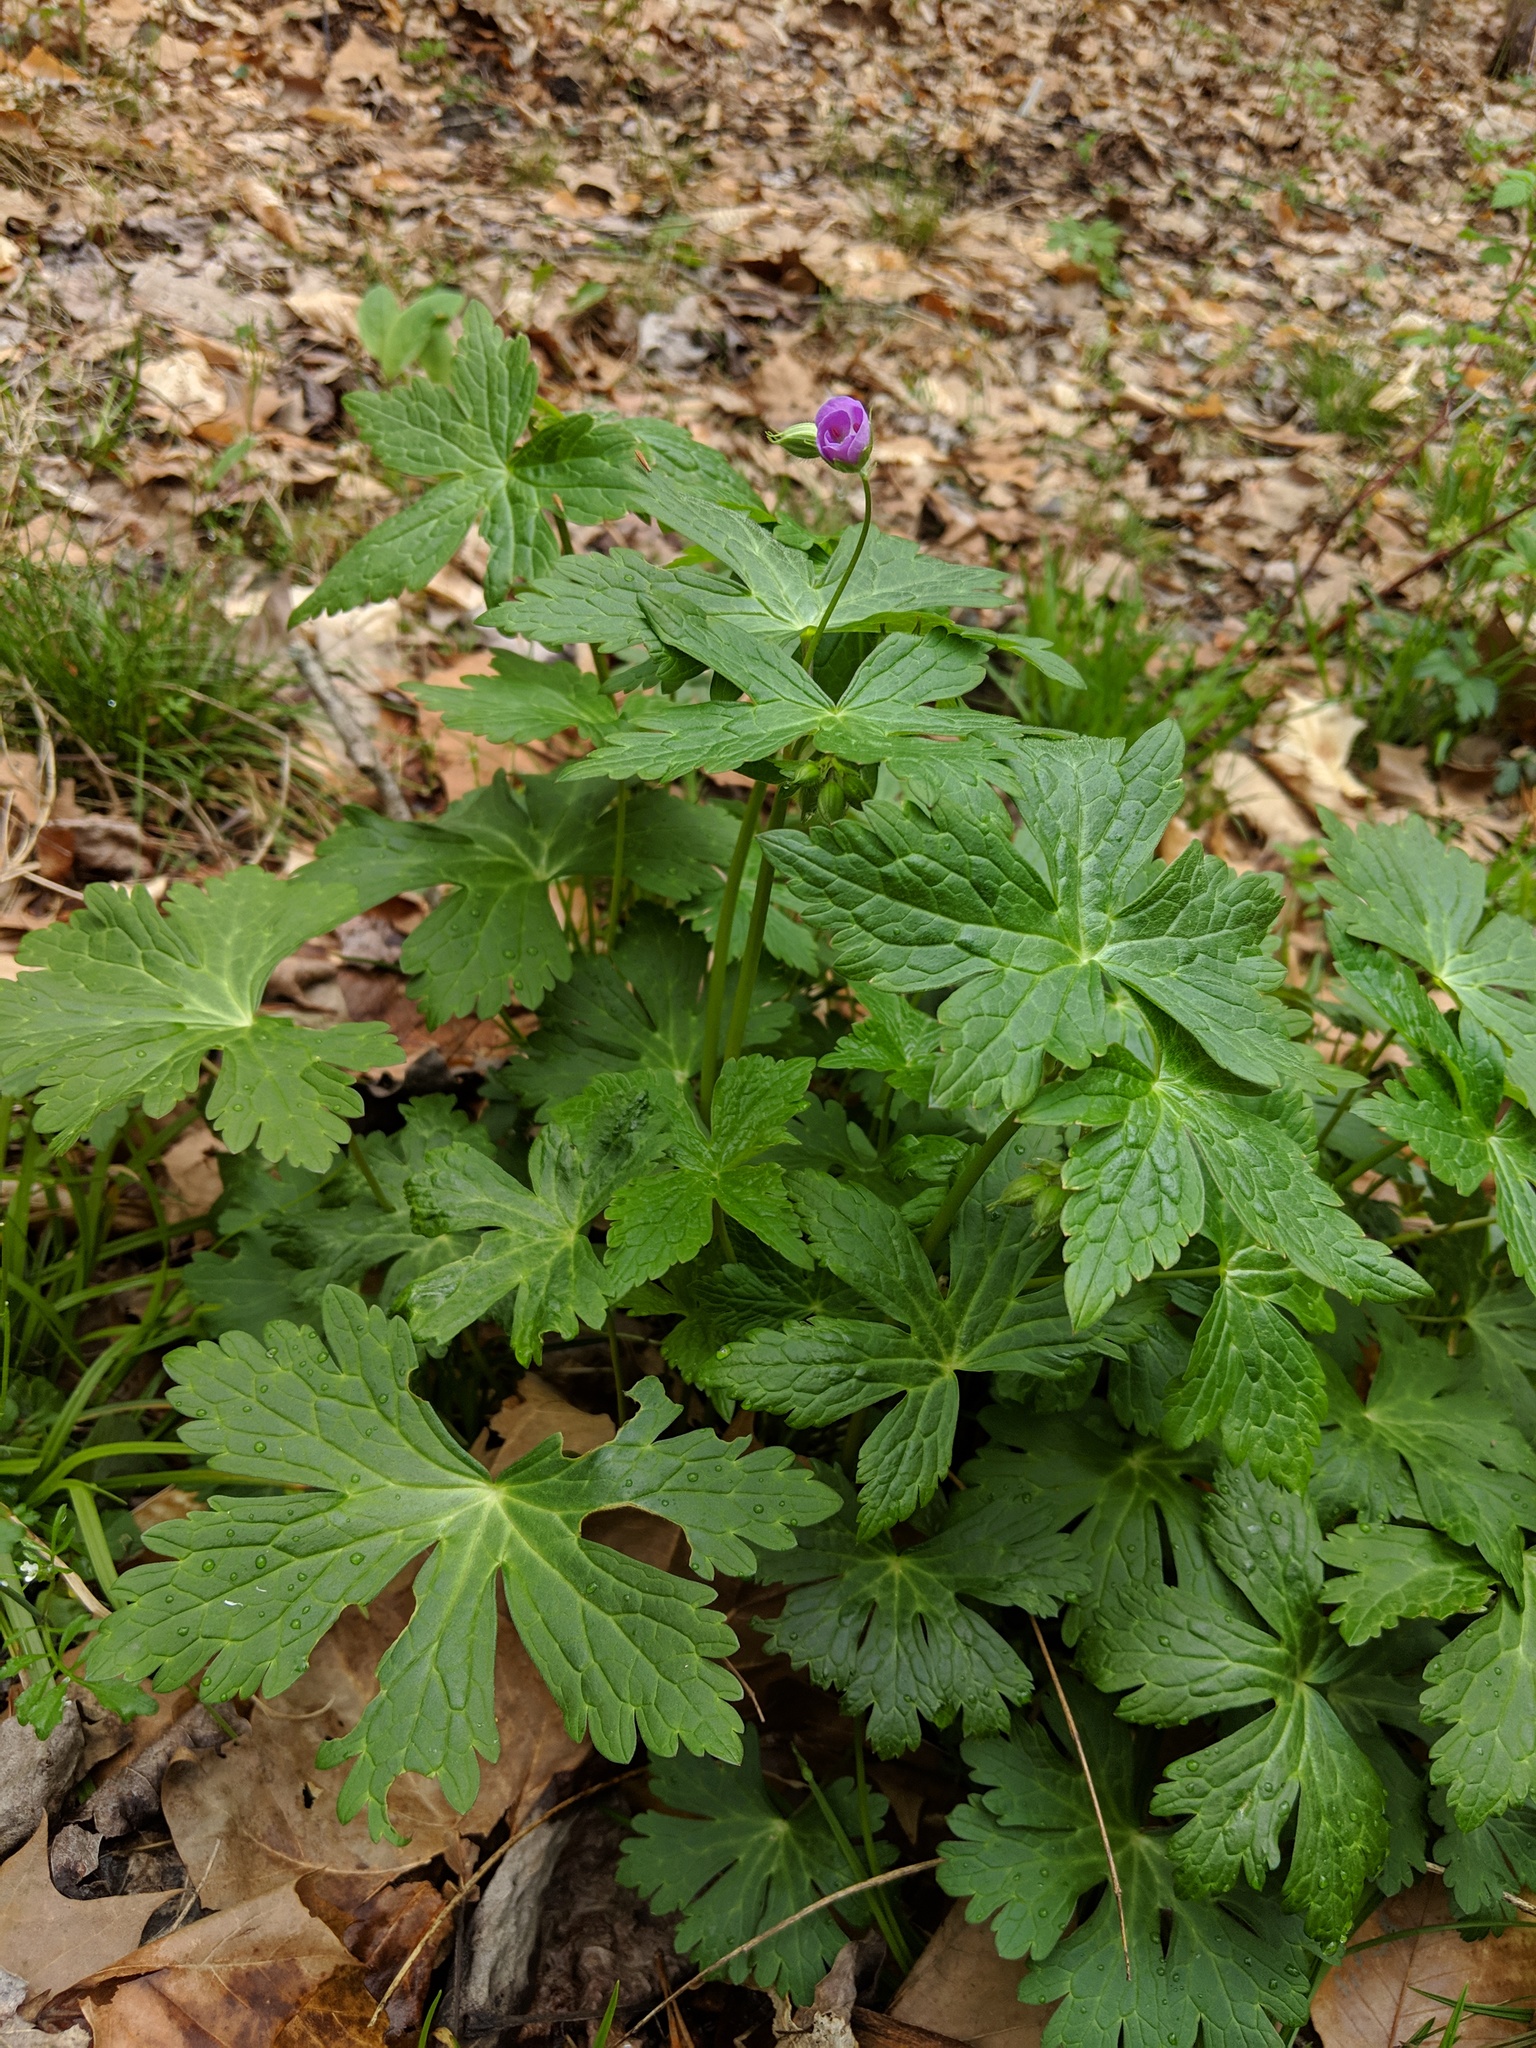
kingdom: Plantae
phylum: Tracheophyta
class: Magnoliopsida
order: Geraniales
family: Geraniaceae
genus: Geranium
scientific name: Geranium maculatum
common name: Spotted geranium
